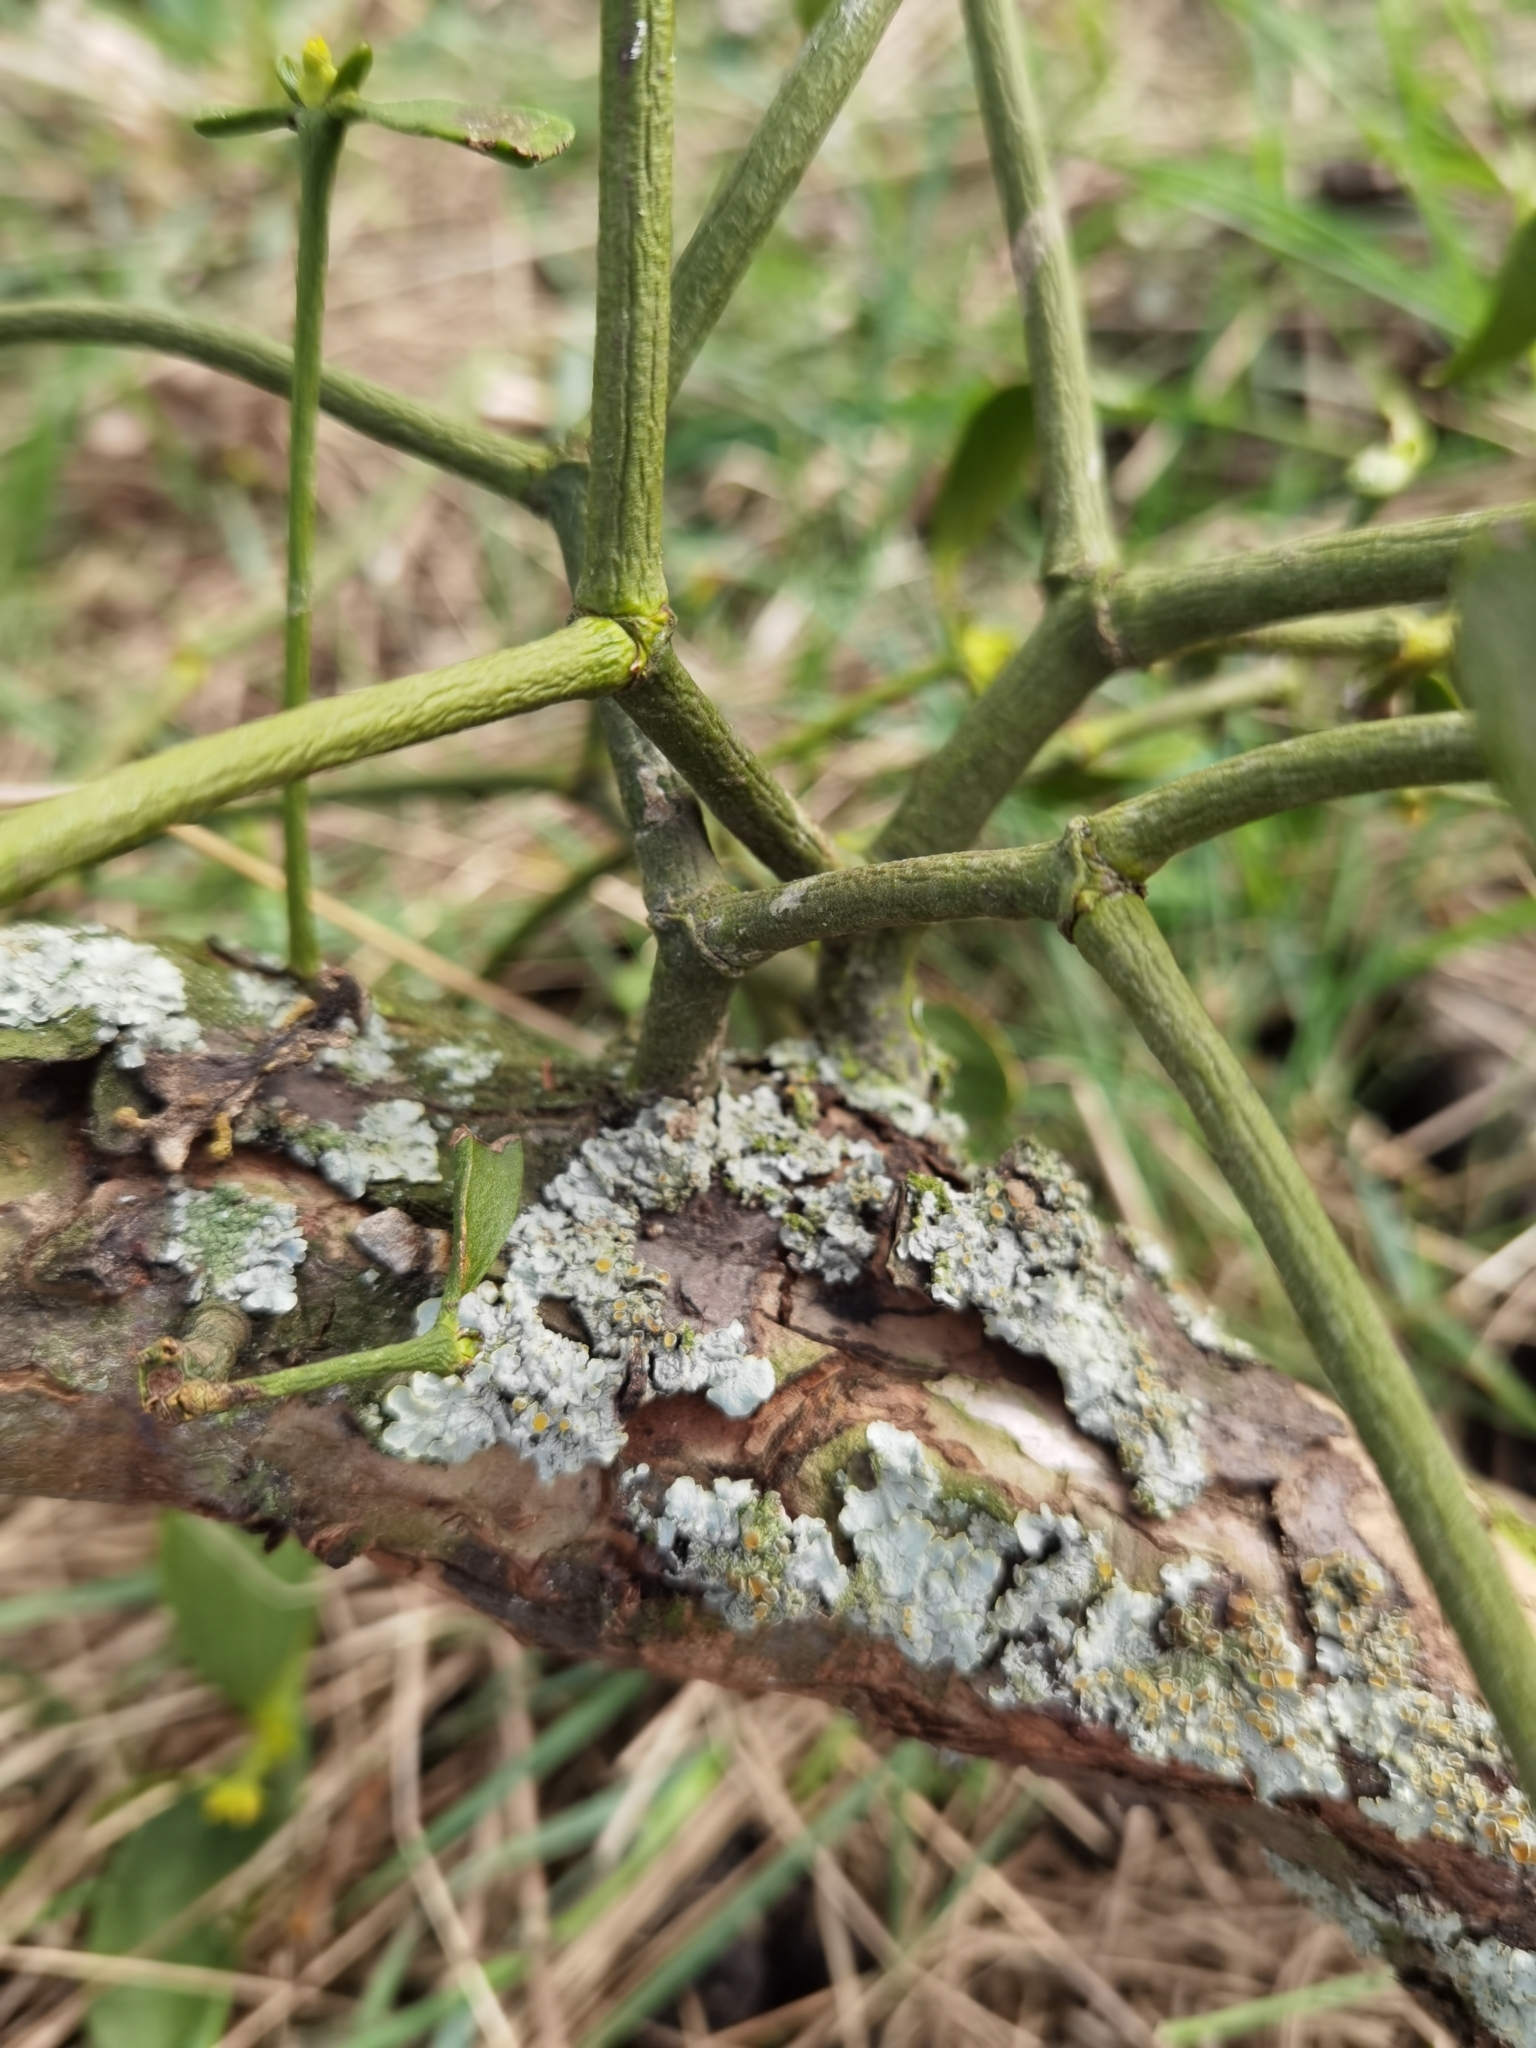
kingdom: Plantae
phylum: Tracheophyta
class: Magnoliopsida
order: Santalales
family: Viscaceae
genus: Viscum
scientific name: Viscum album
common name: Mistletoe
